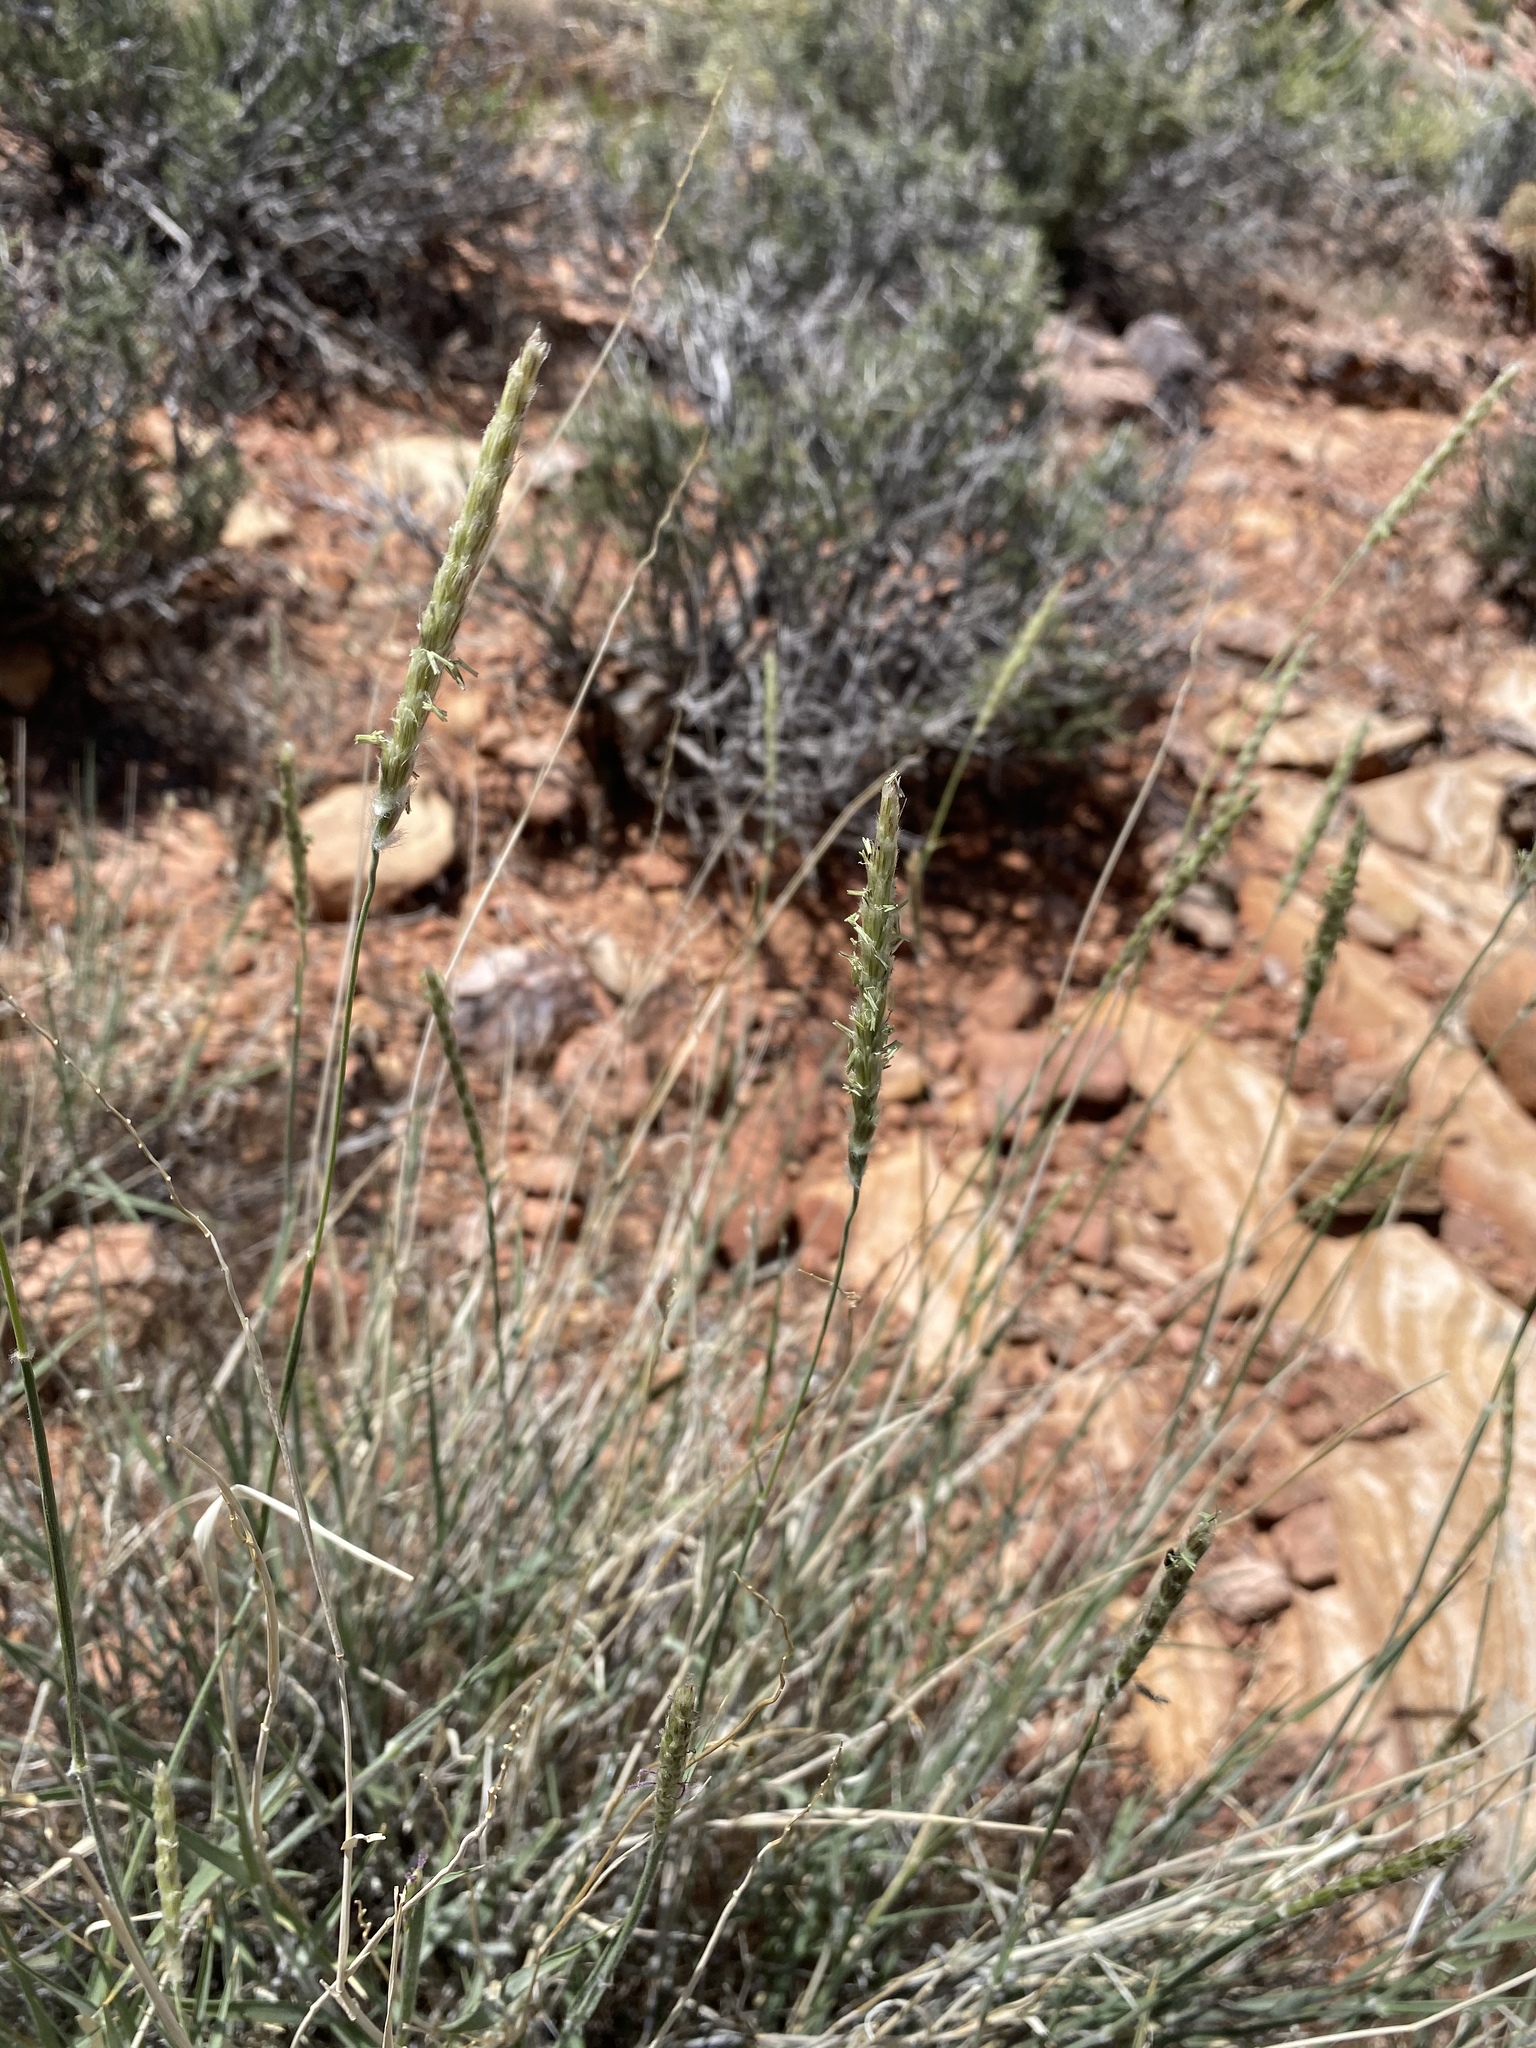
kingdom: Plantae
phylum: Tracheophyta
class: Liliopsida
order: Poales
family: Poaceae
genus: Hilaria
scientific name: Hilaria rigida
